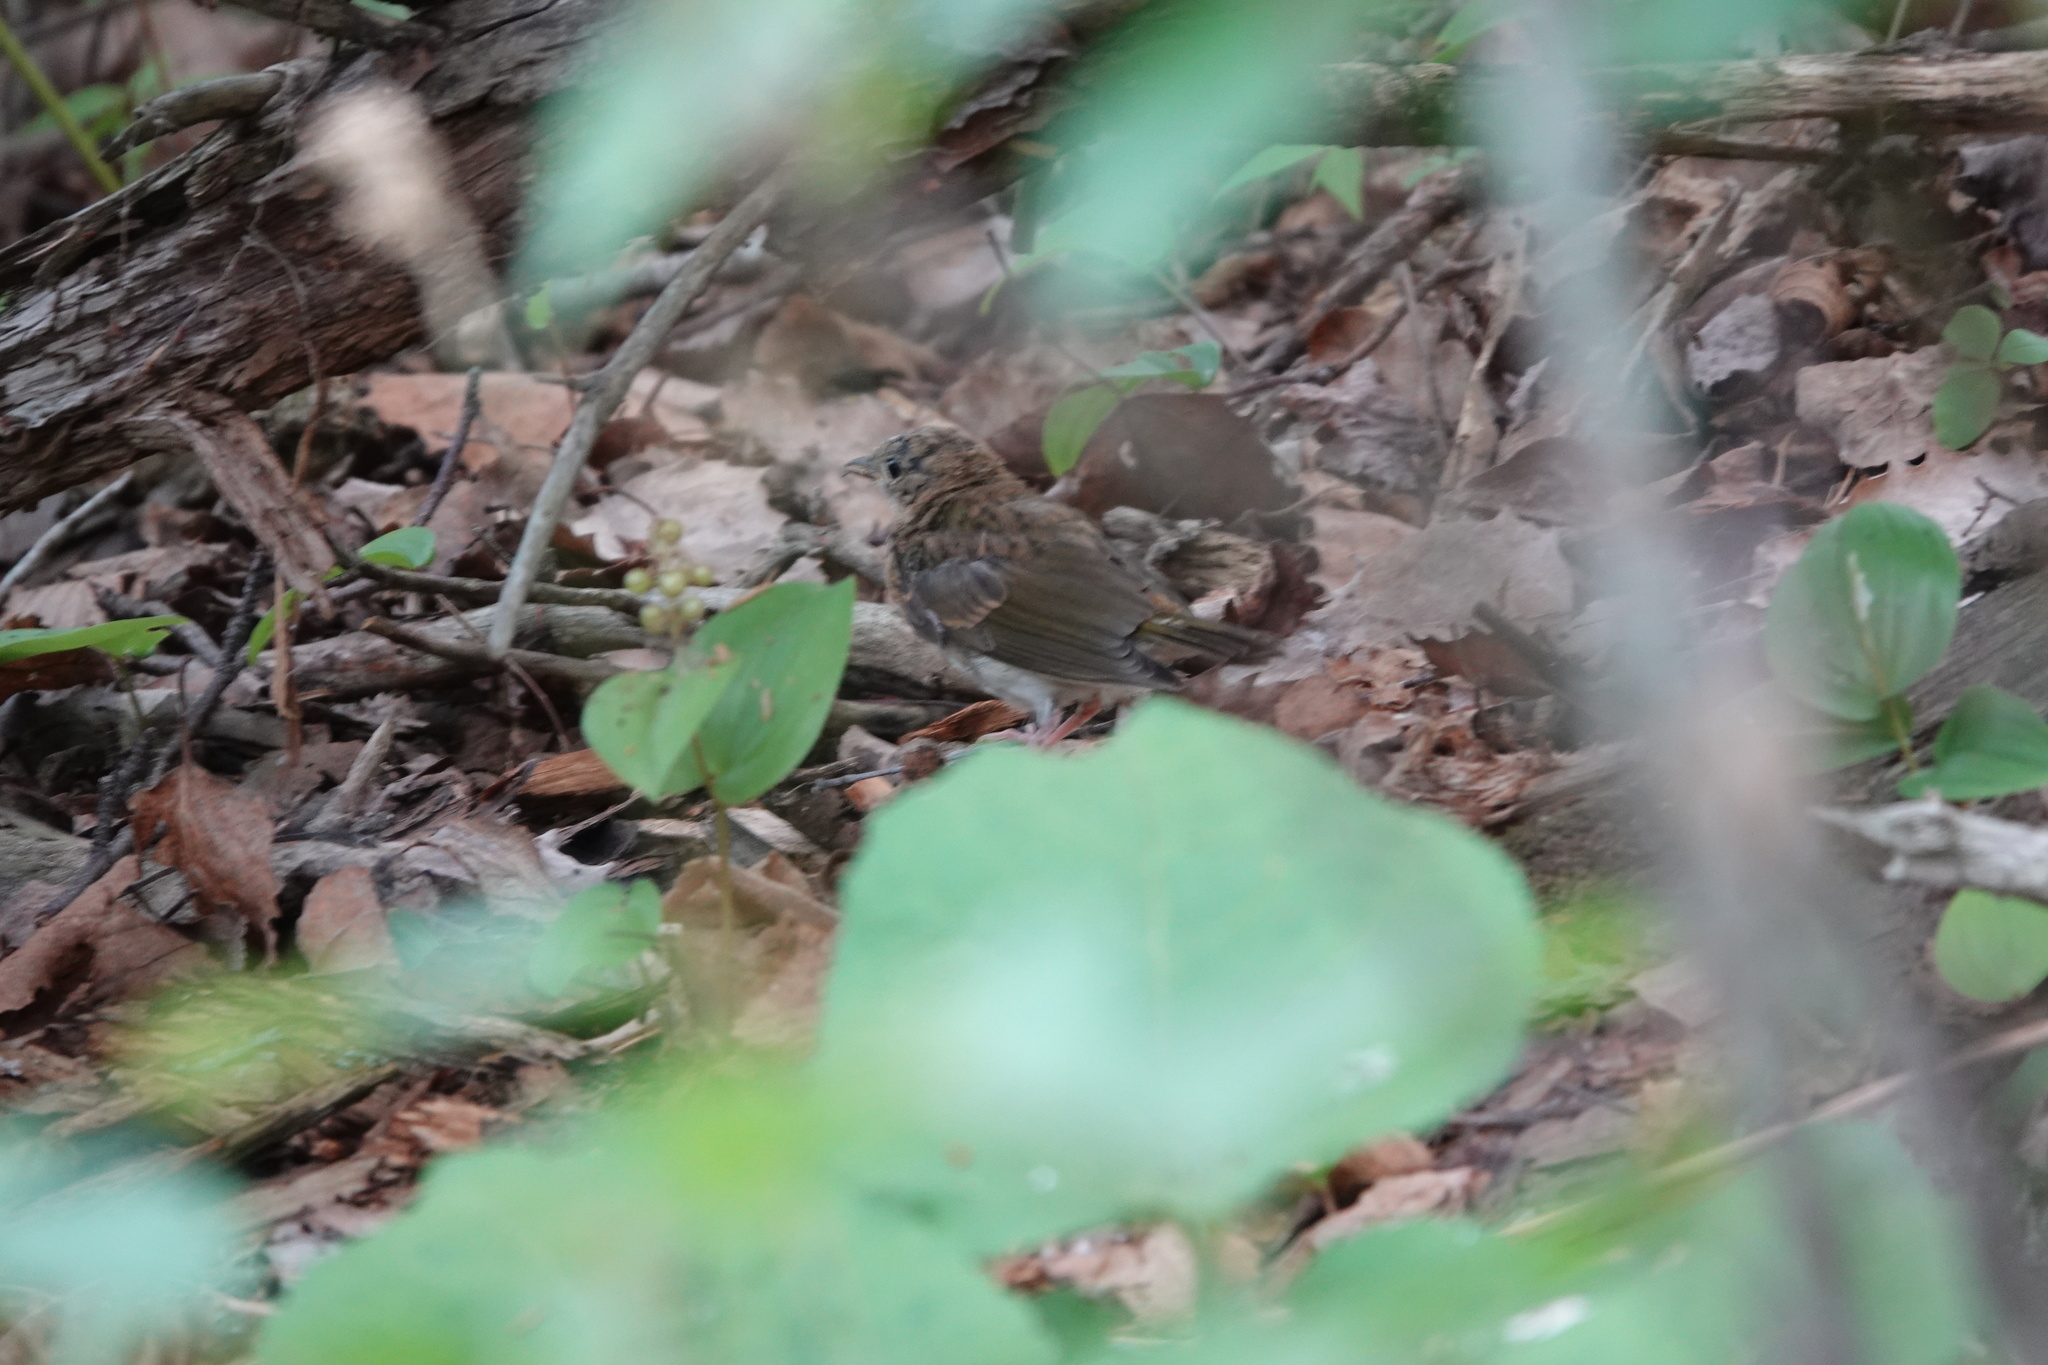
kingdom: Animalia
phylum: Chordata
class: Aves
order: Passeriformes
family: Parulidae
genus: Seiurus
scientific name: Seiurus aurocapilla
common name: Ovenbird
